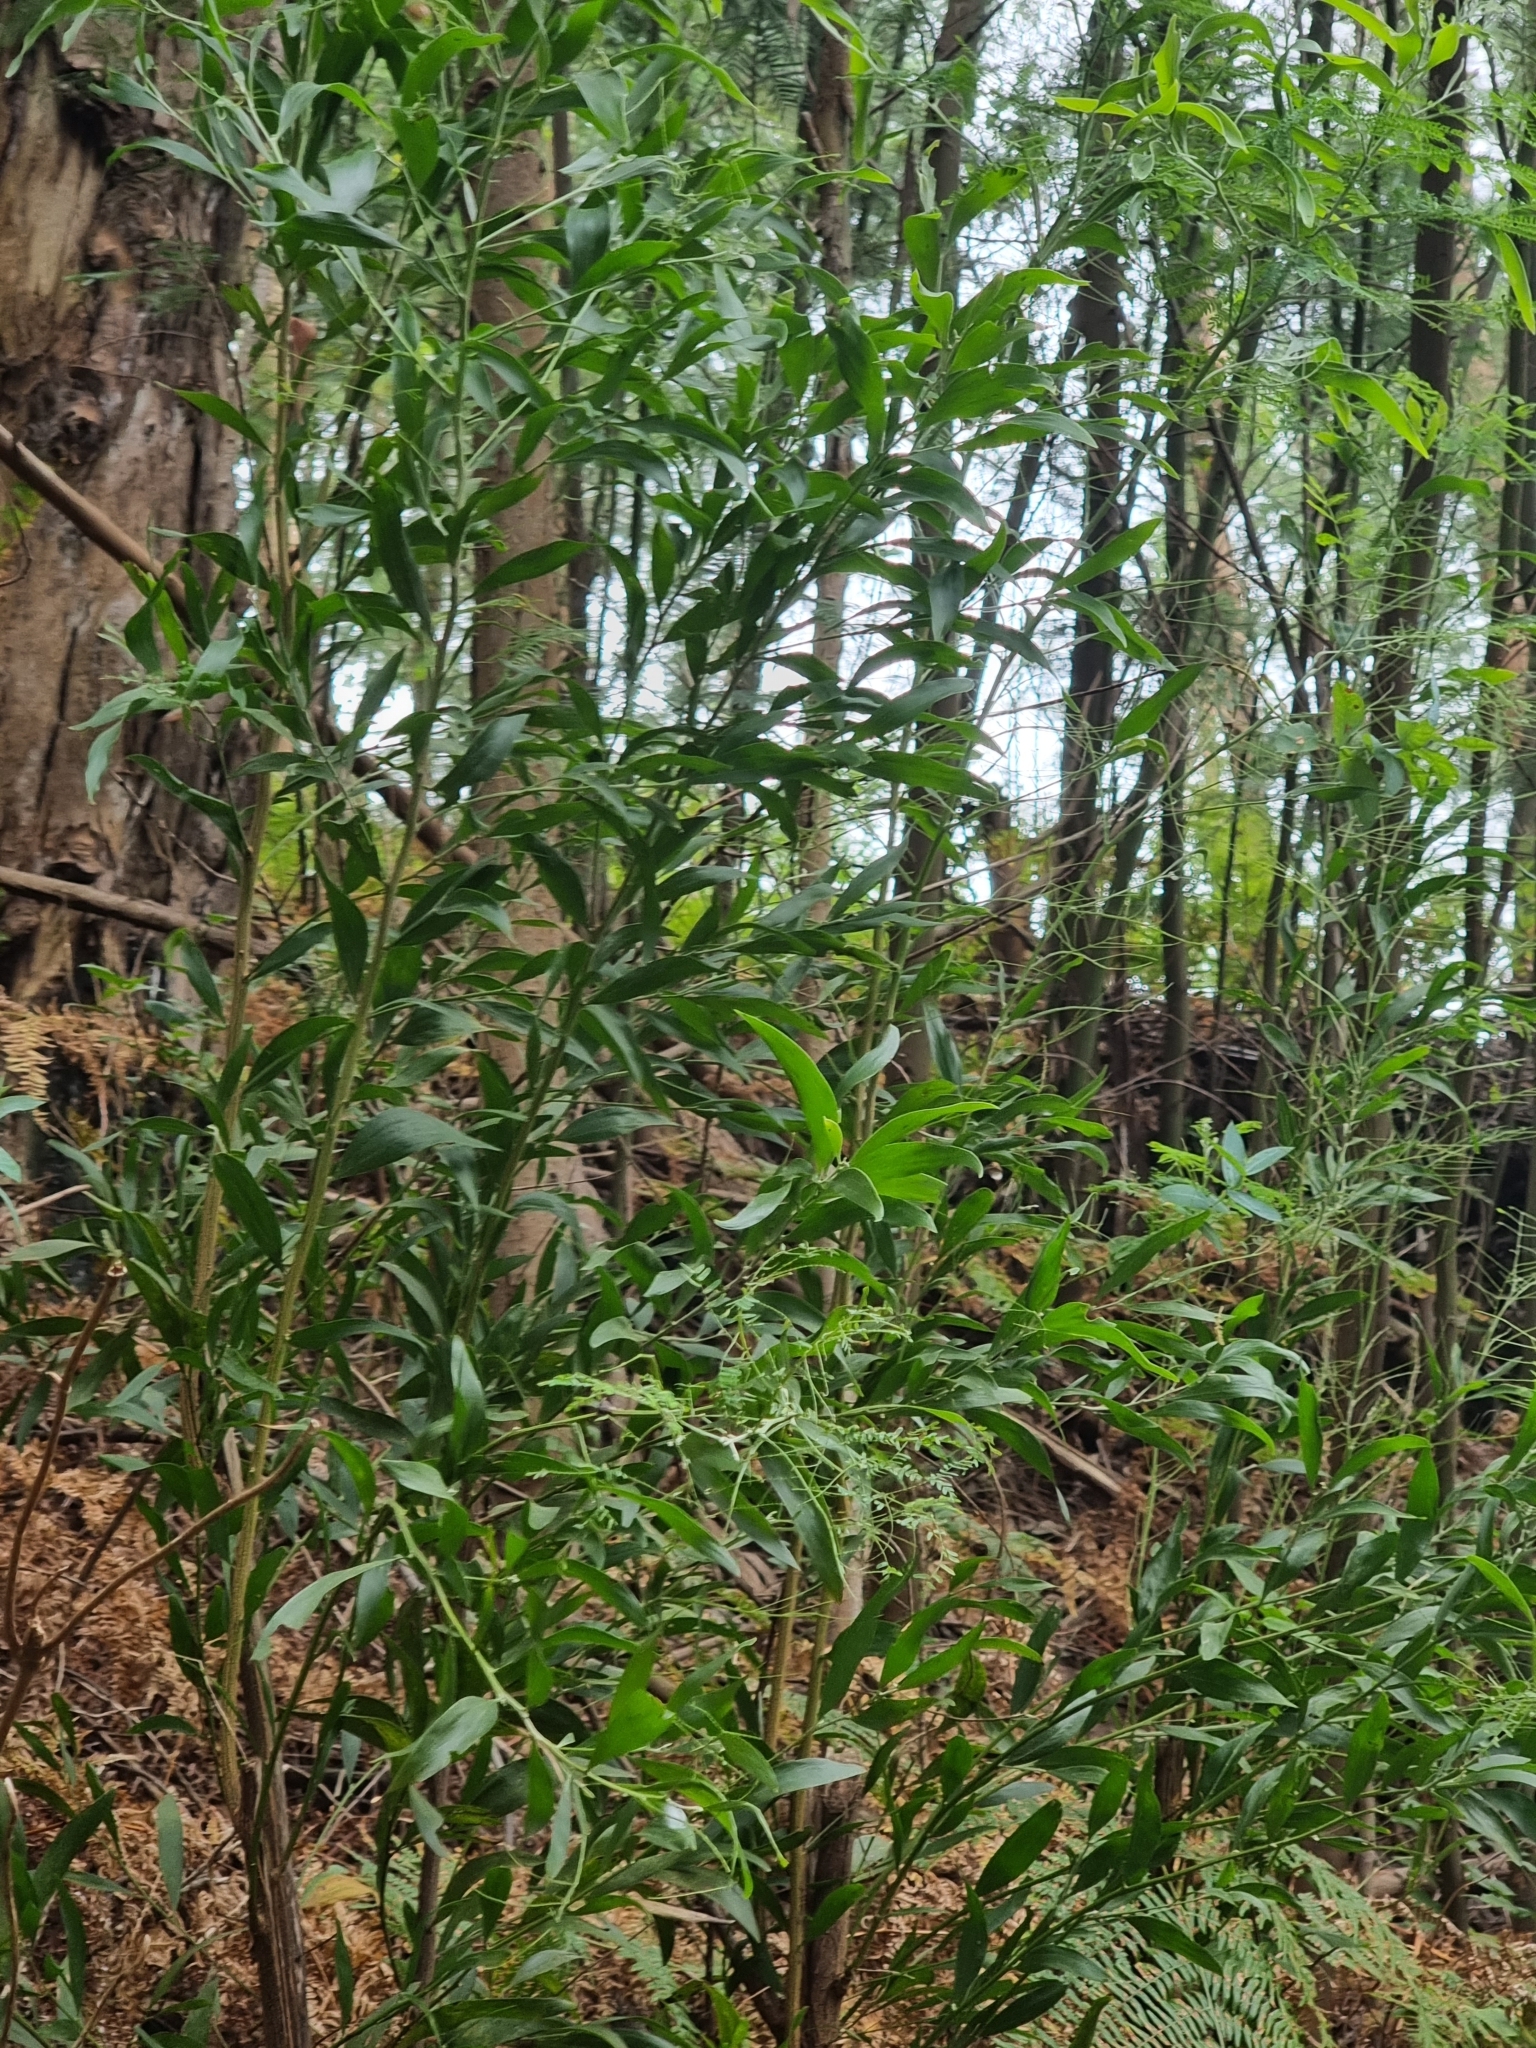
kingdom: Plantae
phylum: Tracheophyta
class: Magnoliopsida
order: Fabales
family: Fabaceae
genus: Acacia
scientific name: Acacia melanoxylon
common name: Blackwood
